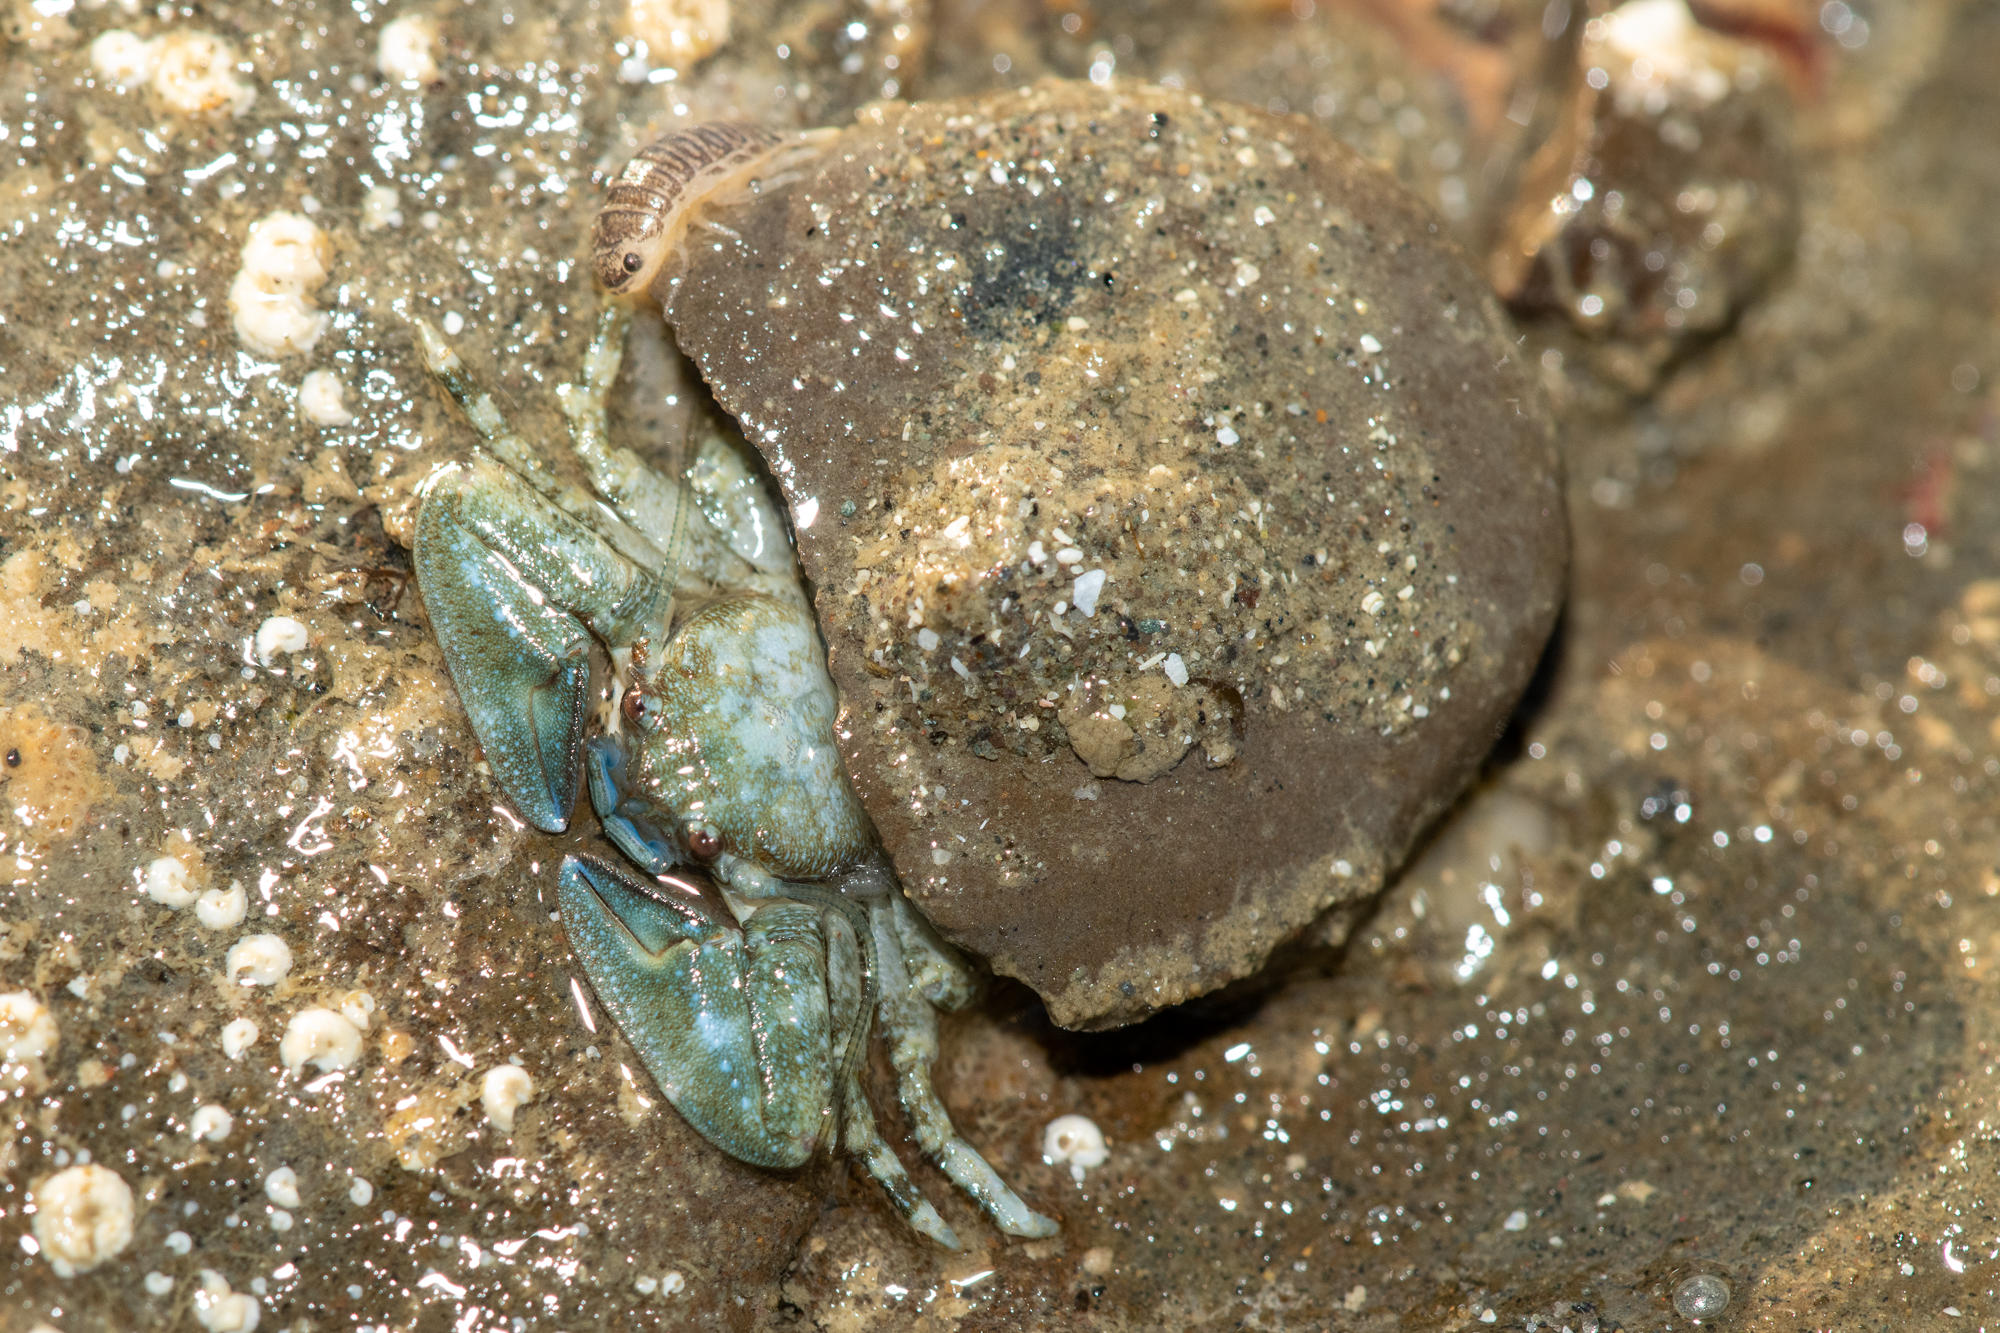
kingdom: Animalia
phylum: Arthropoda
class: Malacostraca
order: Decapoda
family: Porcellanidae
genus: Petrolisthes
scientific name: Petrolisthes manimaculis
